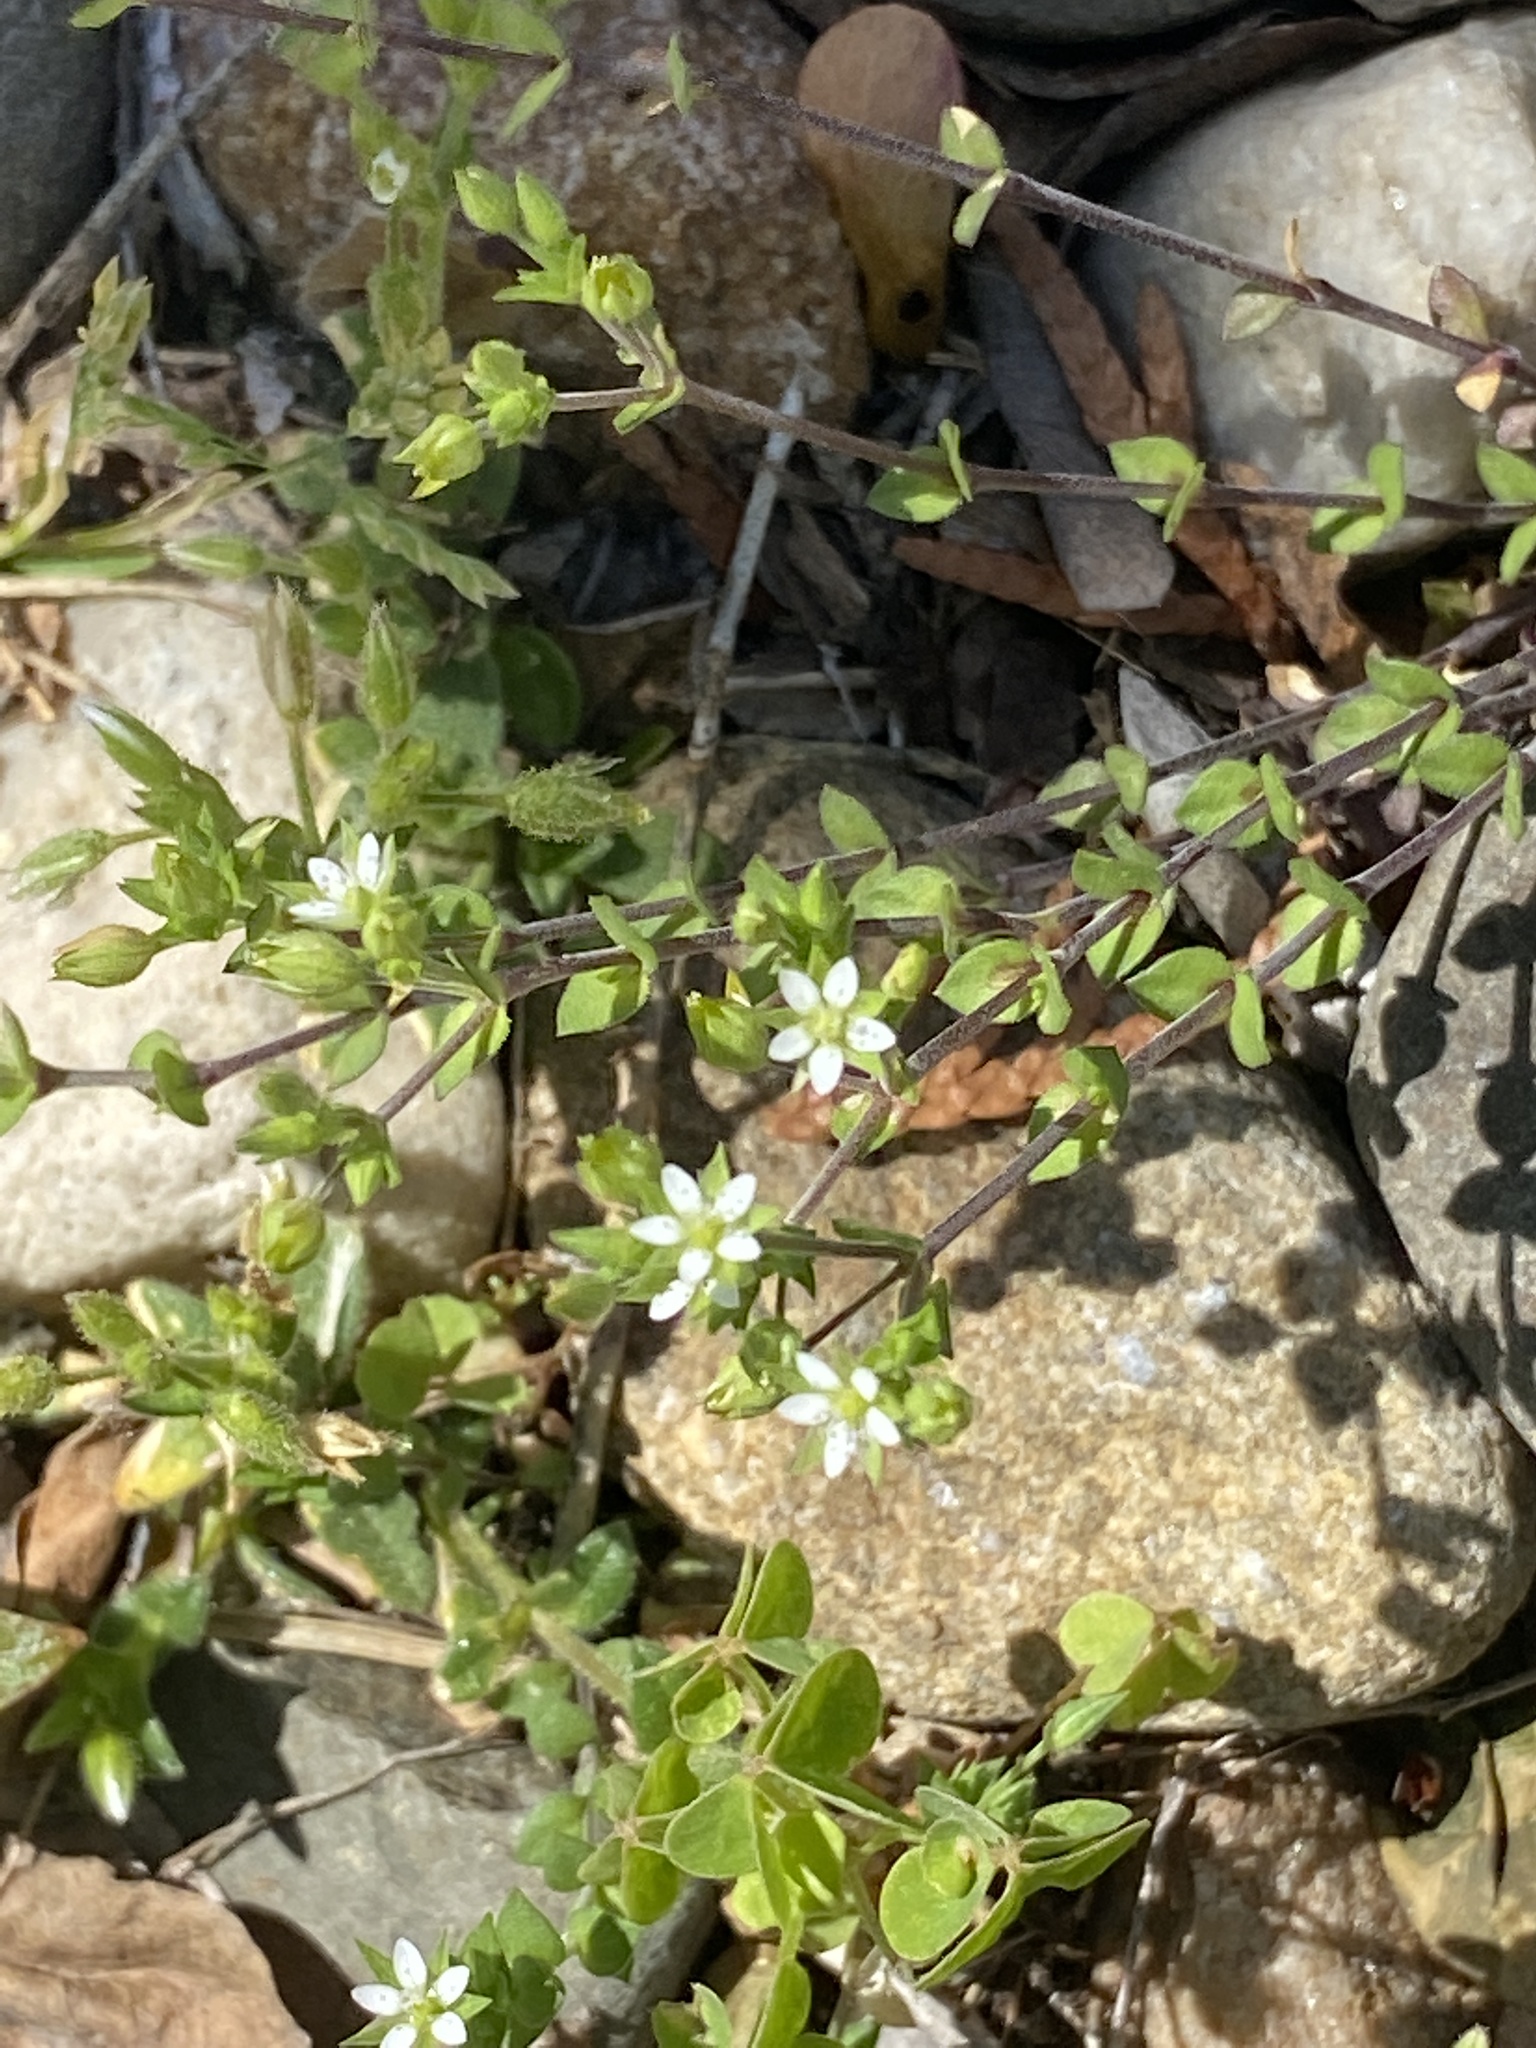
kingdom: Plantae
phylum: Tracheophyta
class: Magnoliopsida
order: Caryophyllales
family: Caryophyllaceae
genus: Arenaria
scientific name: Arenaria serpyllifolia
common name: Thyme-leaved sandwort
